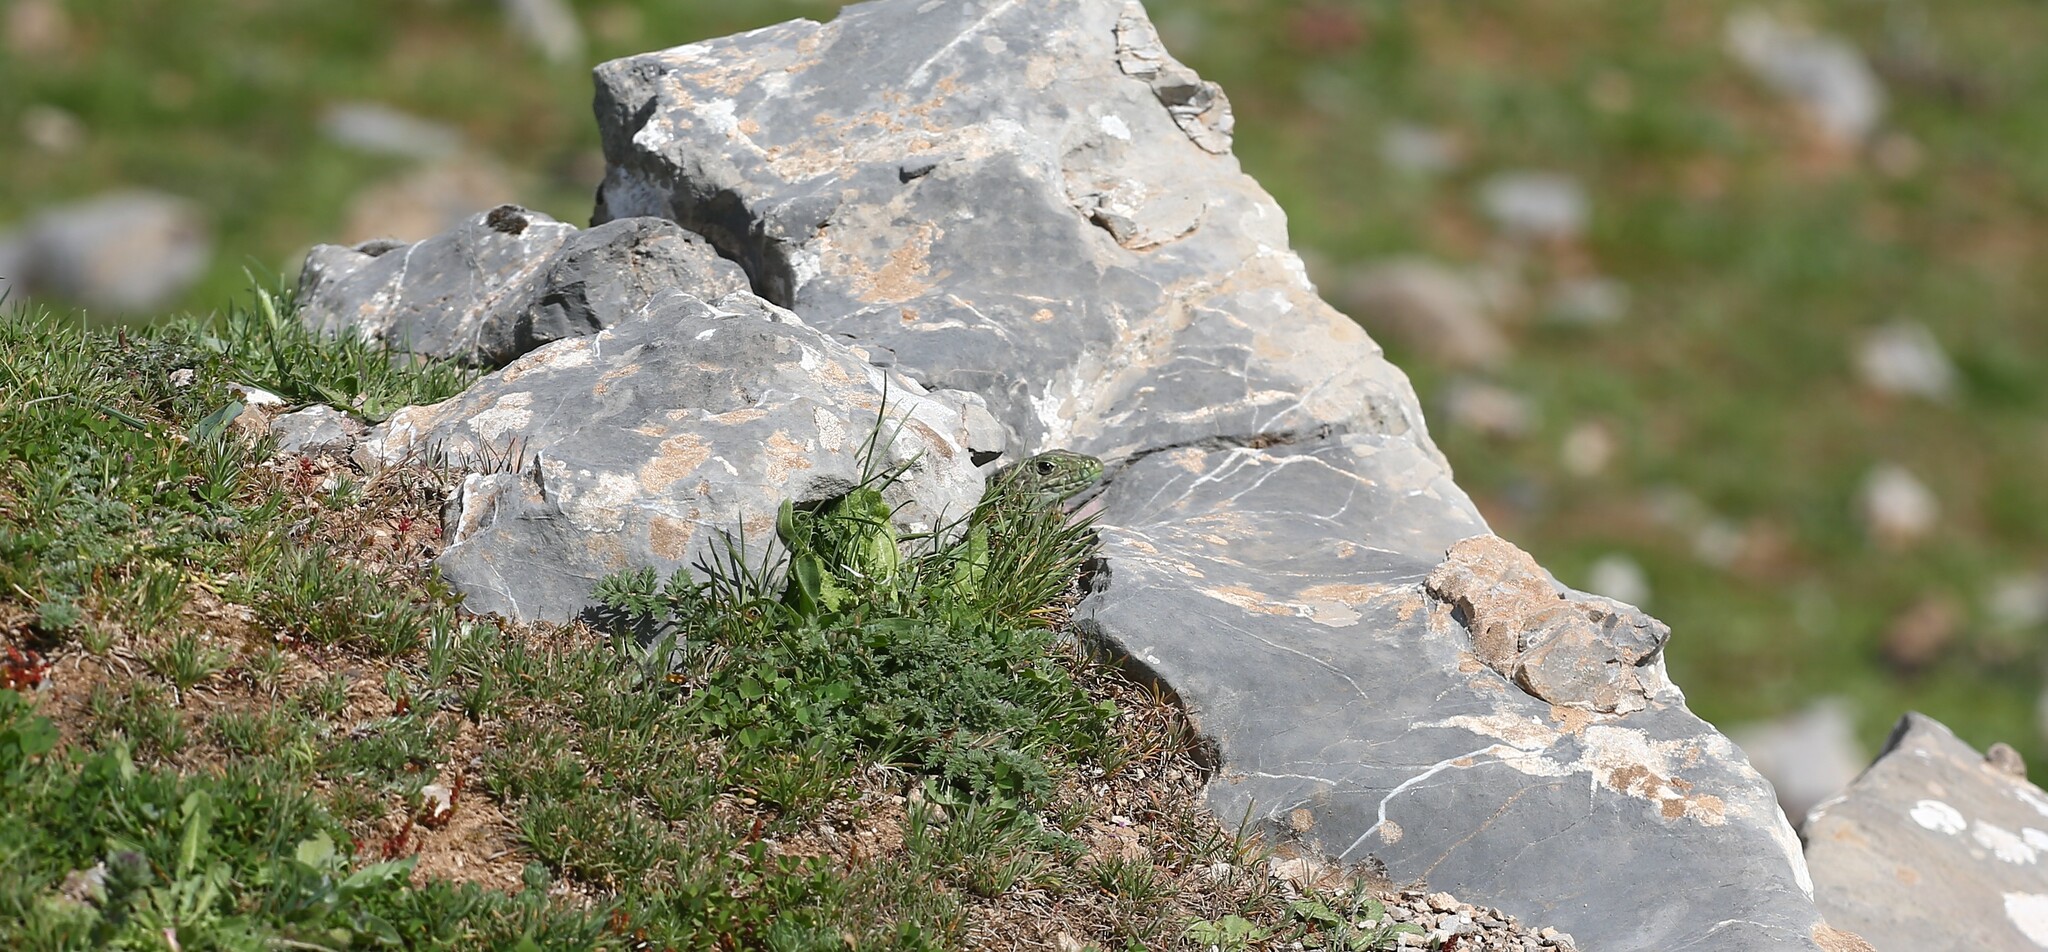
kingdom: Animalia
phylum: Chordata
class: Squamata
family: Lacertidae
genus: Timon
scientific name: Timon tangitanus
